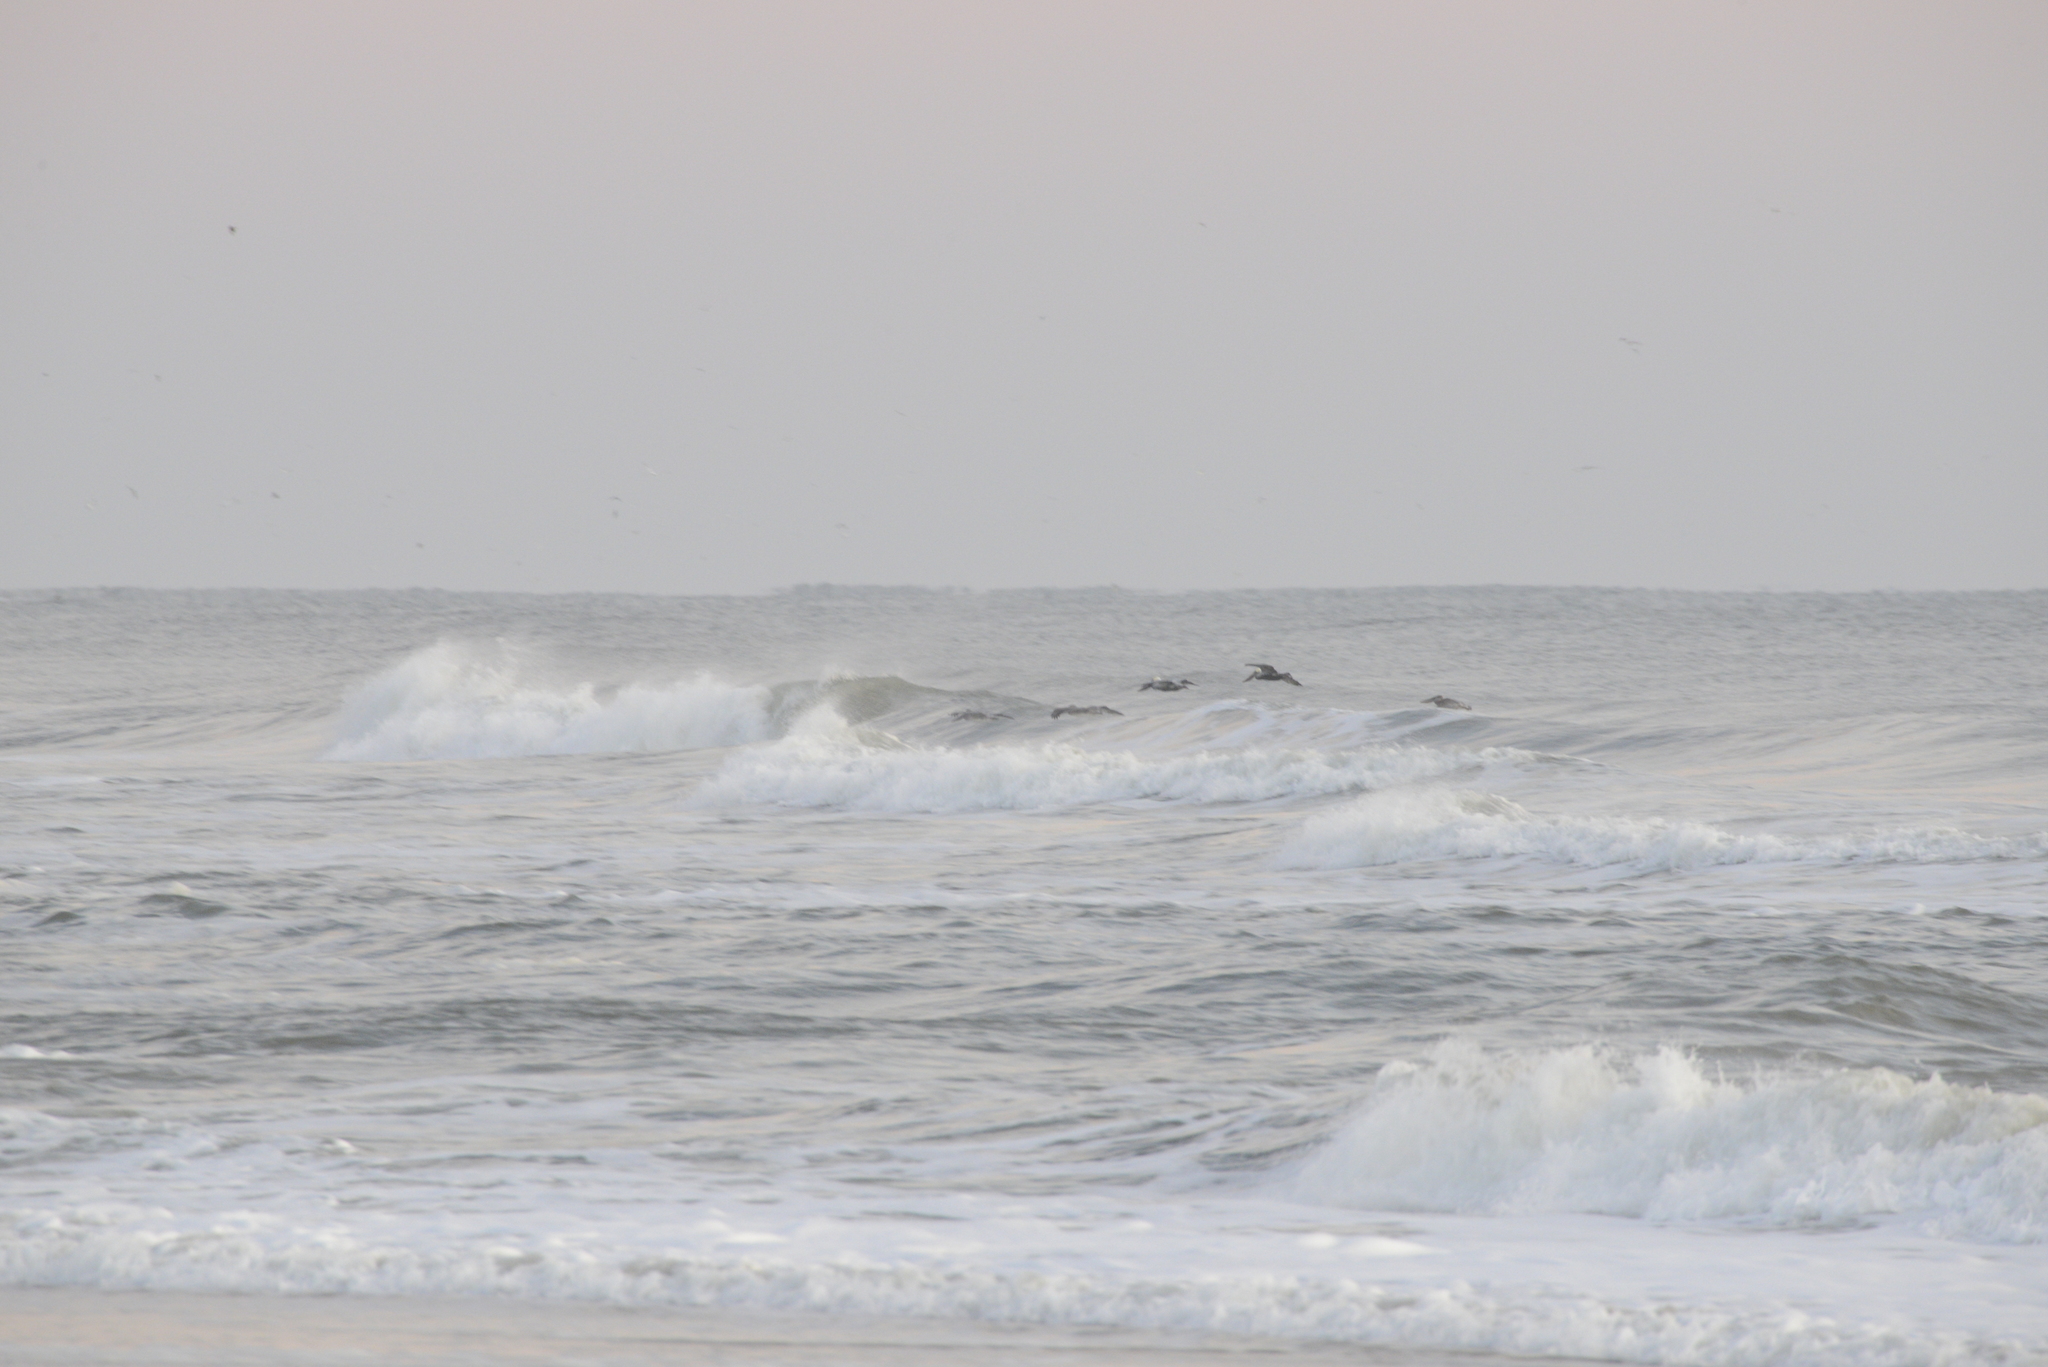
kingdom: Animalia
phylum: Chordata
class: Aves
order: Pelecaniformes
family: Pelecanidae
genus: Pelecanus
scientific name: Pelecanus occidentalis
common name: Brown pelican
